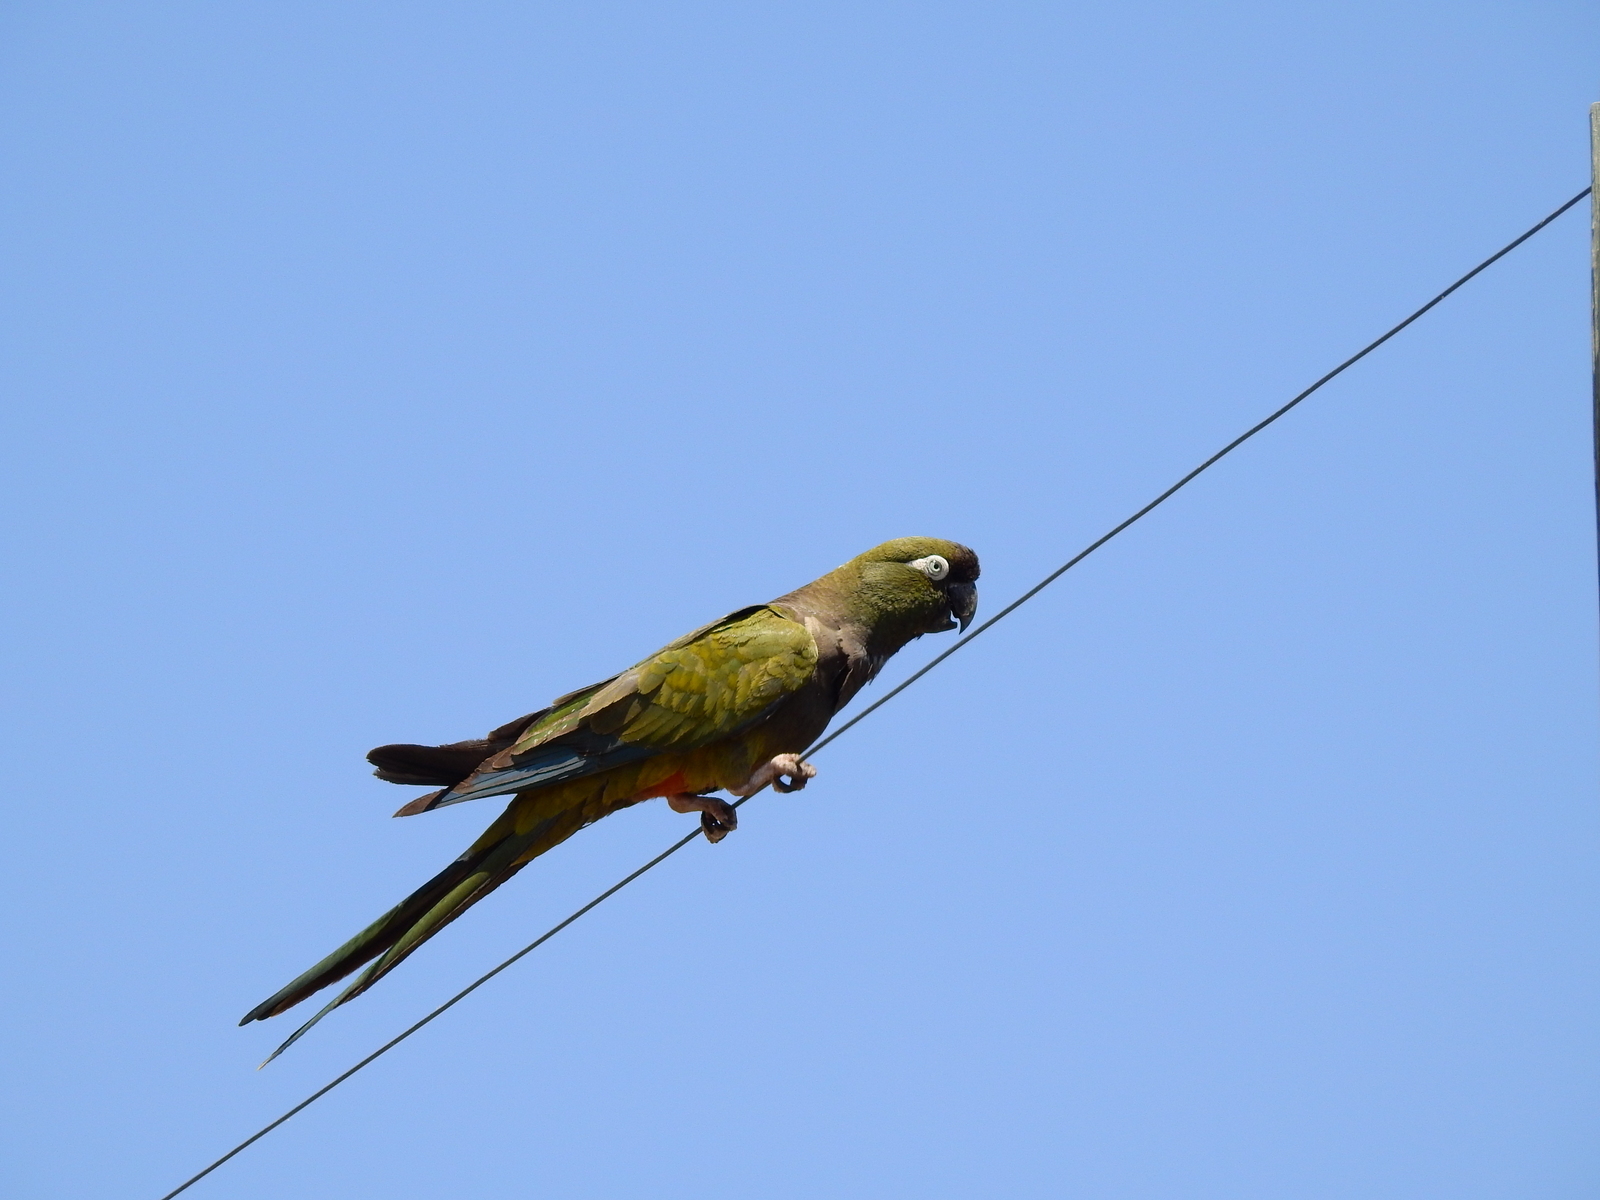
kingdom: Animalia
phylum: Chordata
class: Aves
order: Psittaciformes
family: Psittacidae
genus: Cyanoliseus
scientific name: Cyanoliseus patagonus
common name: Burrowing parrot
